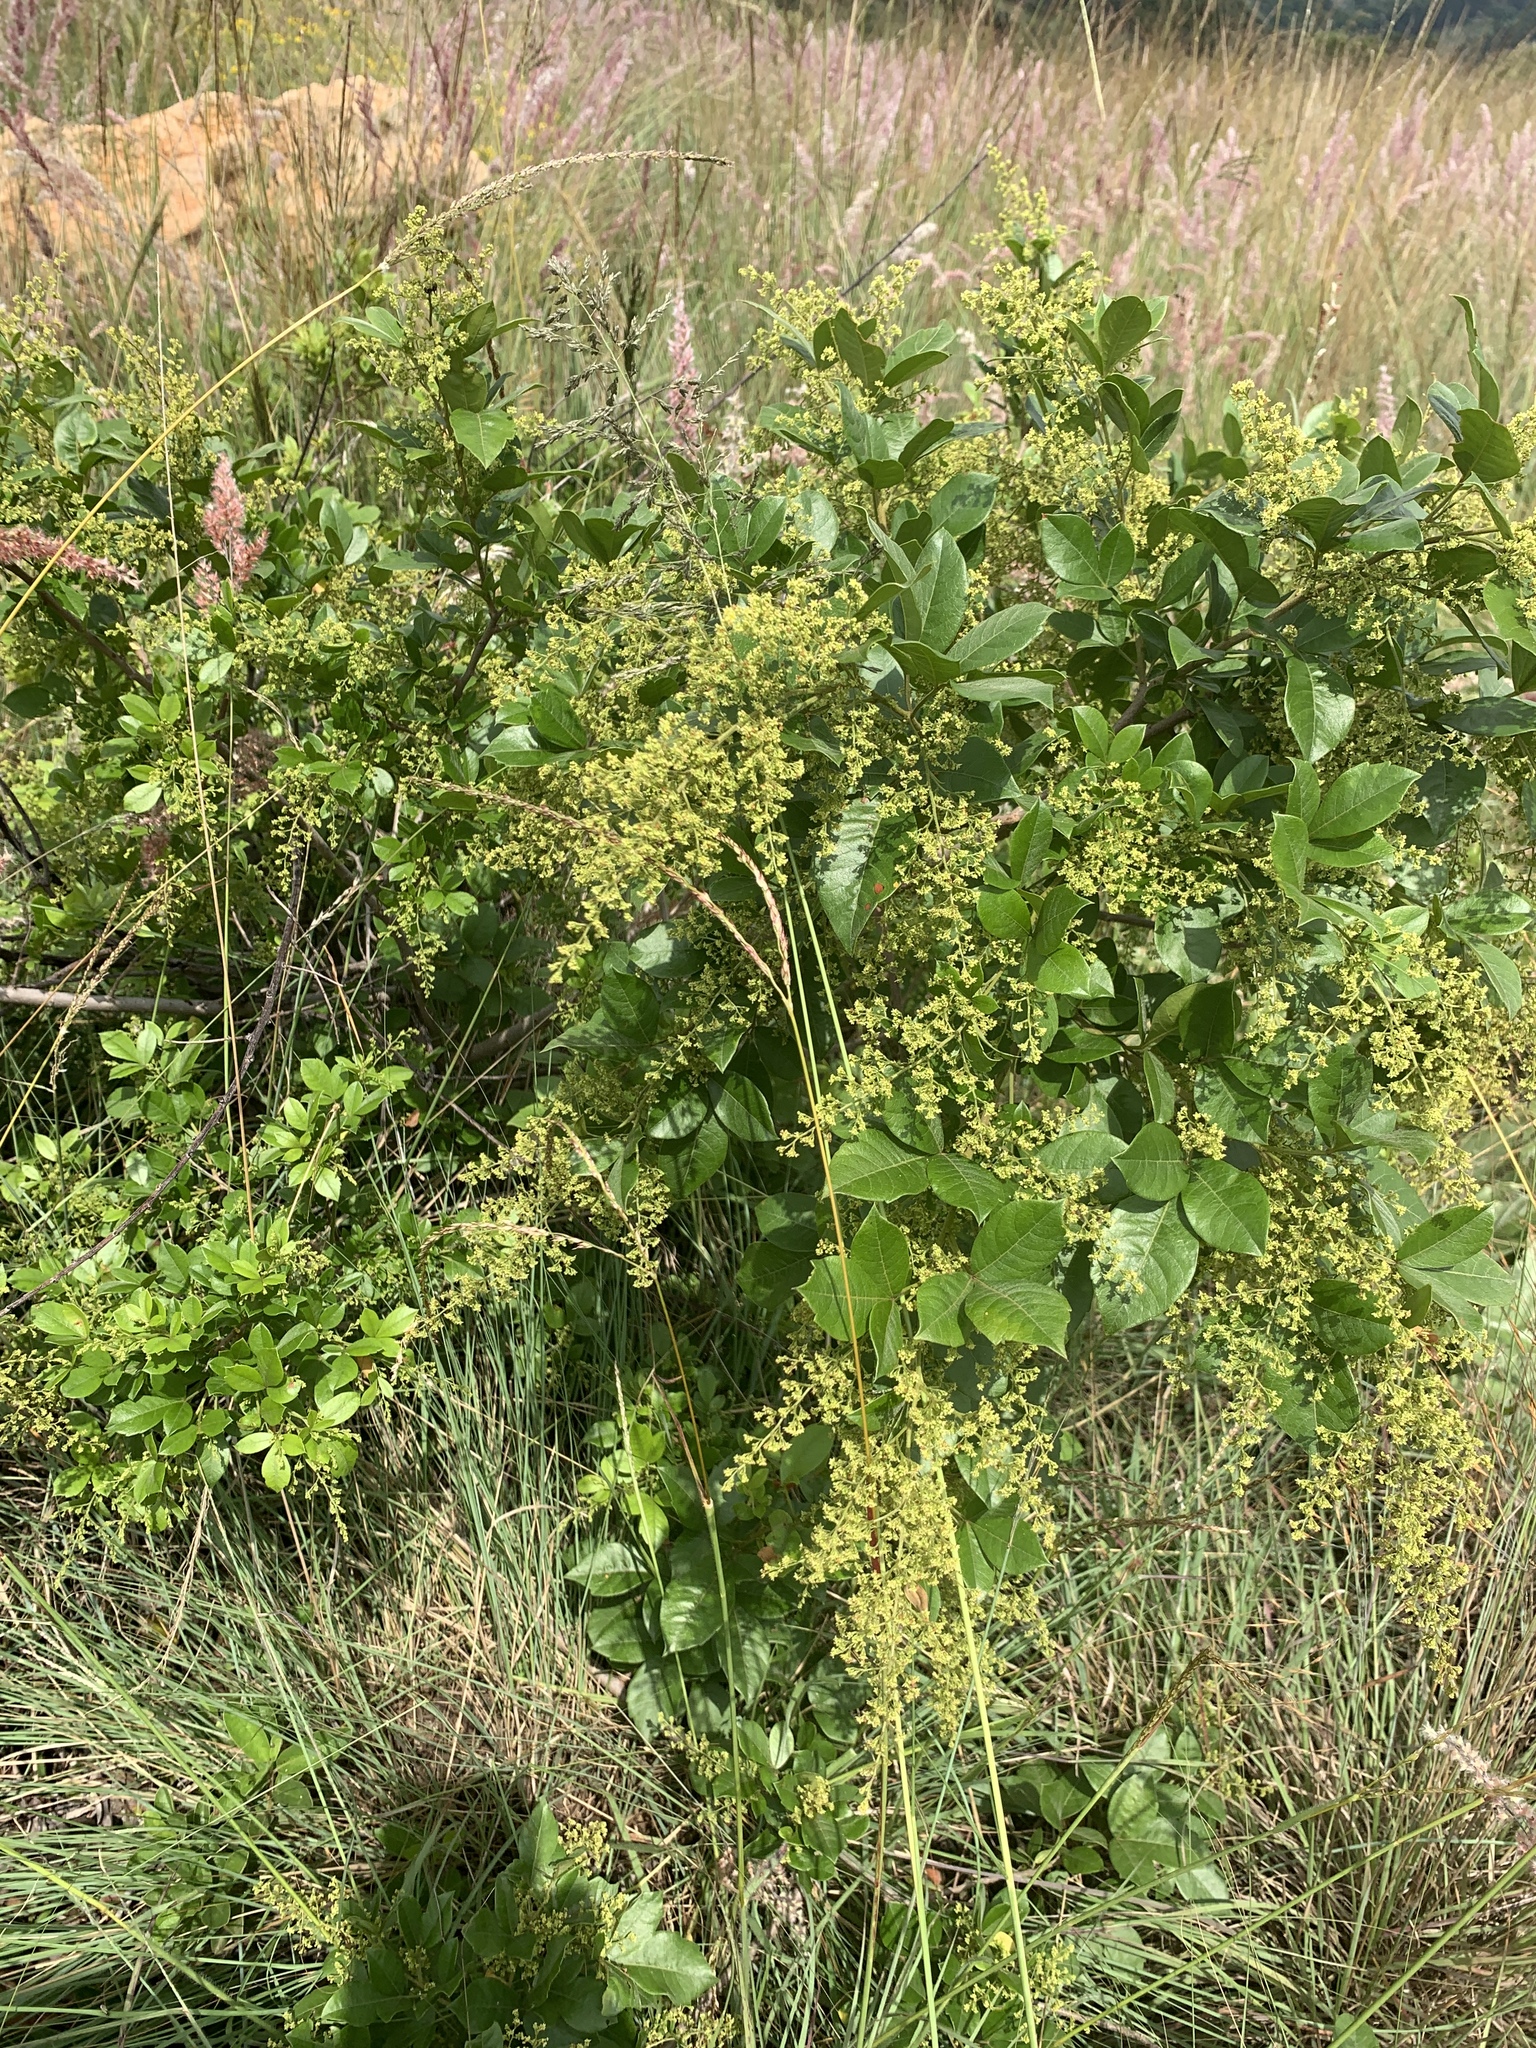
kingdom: Plantae
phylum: Tracheophyta
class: Magnoliopsida
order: Sapindales
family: Anacardiaceae
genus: Searsia
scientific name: Searsia pyroides
